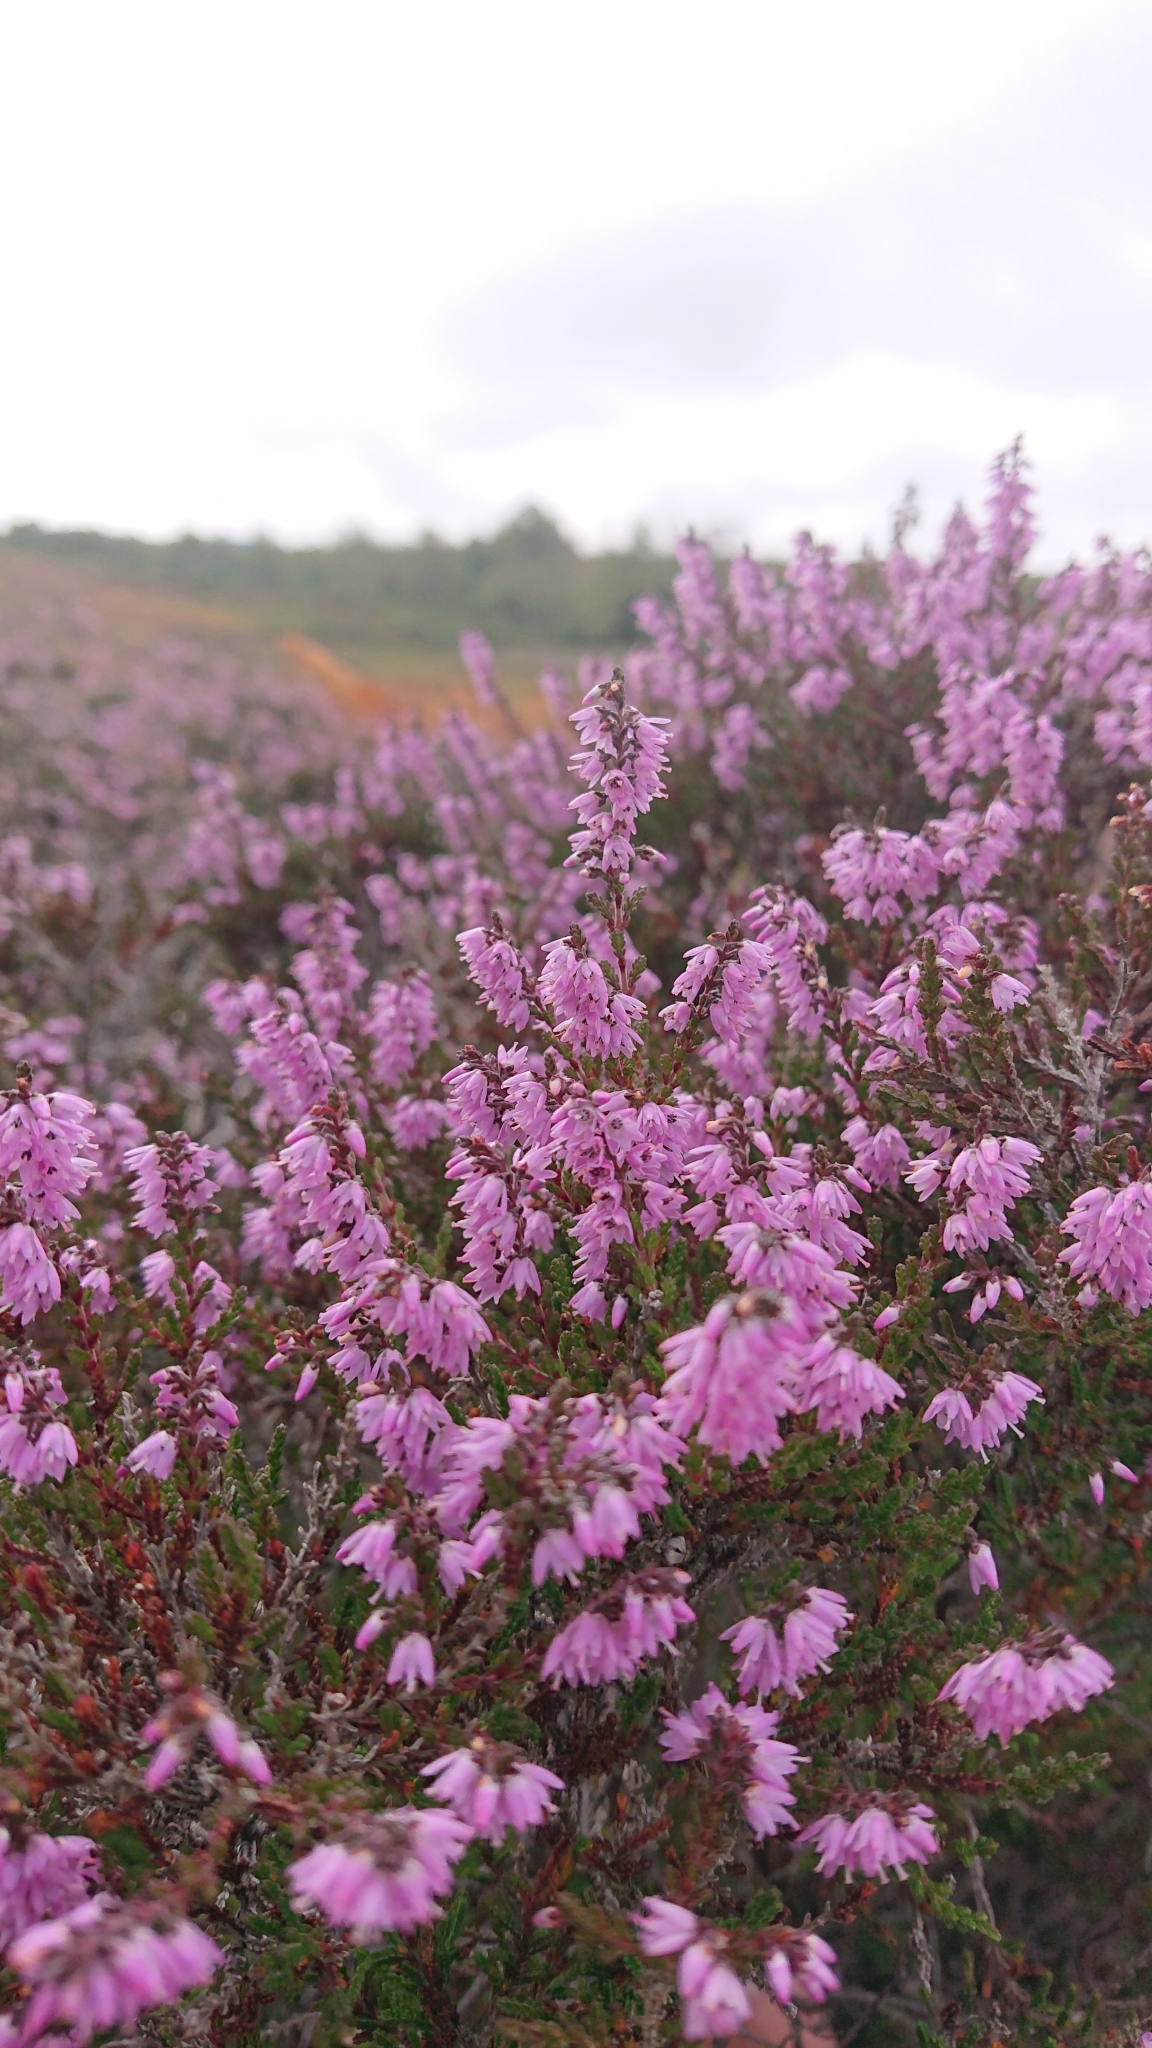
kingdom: Plantae
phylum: Tracheophyta
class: Magnoliopsida
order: Ericales
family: Ericaceae
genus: Calluna
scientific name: Calluna vulgaris
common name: Heather
